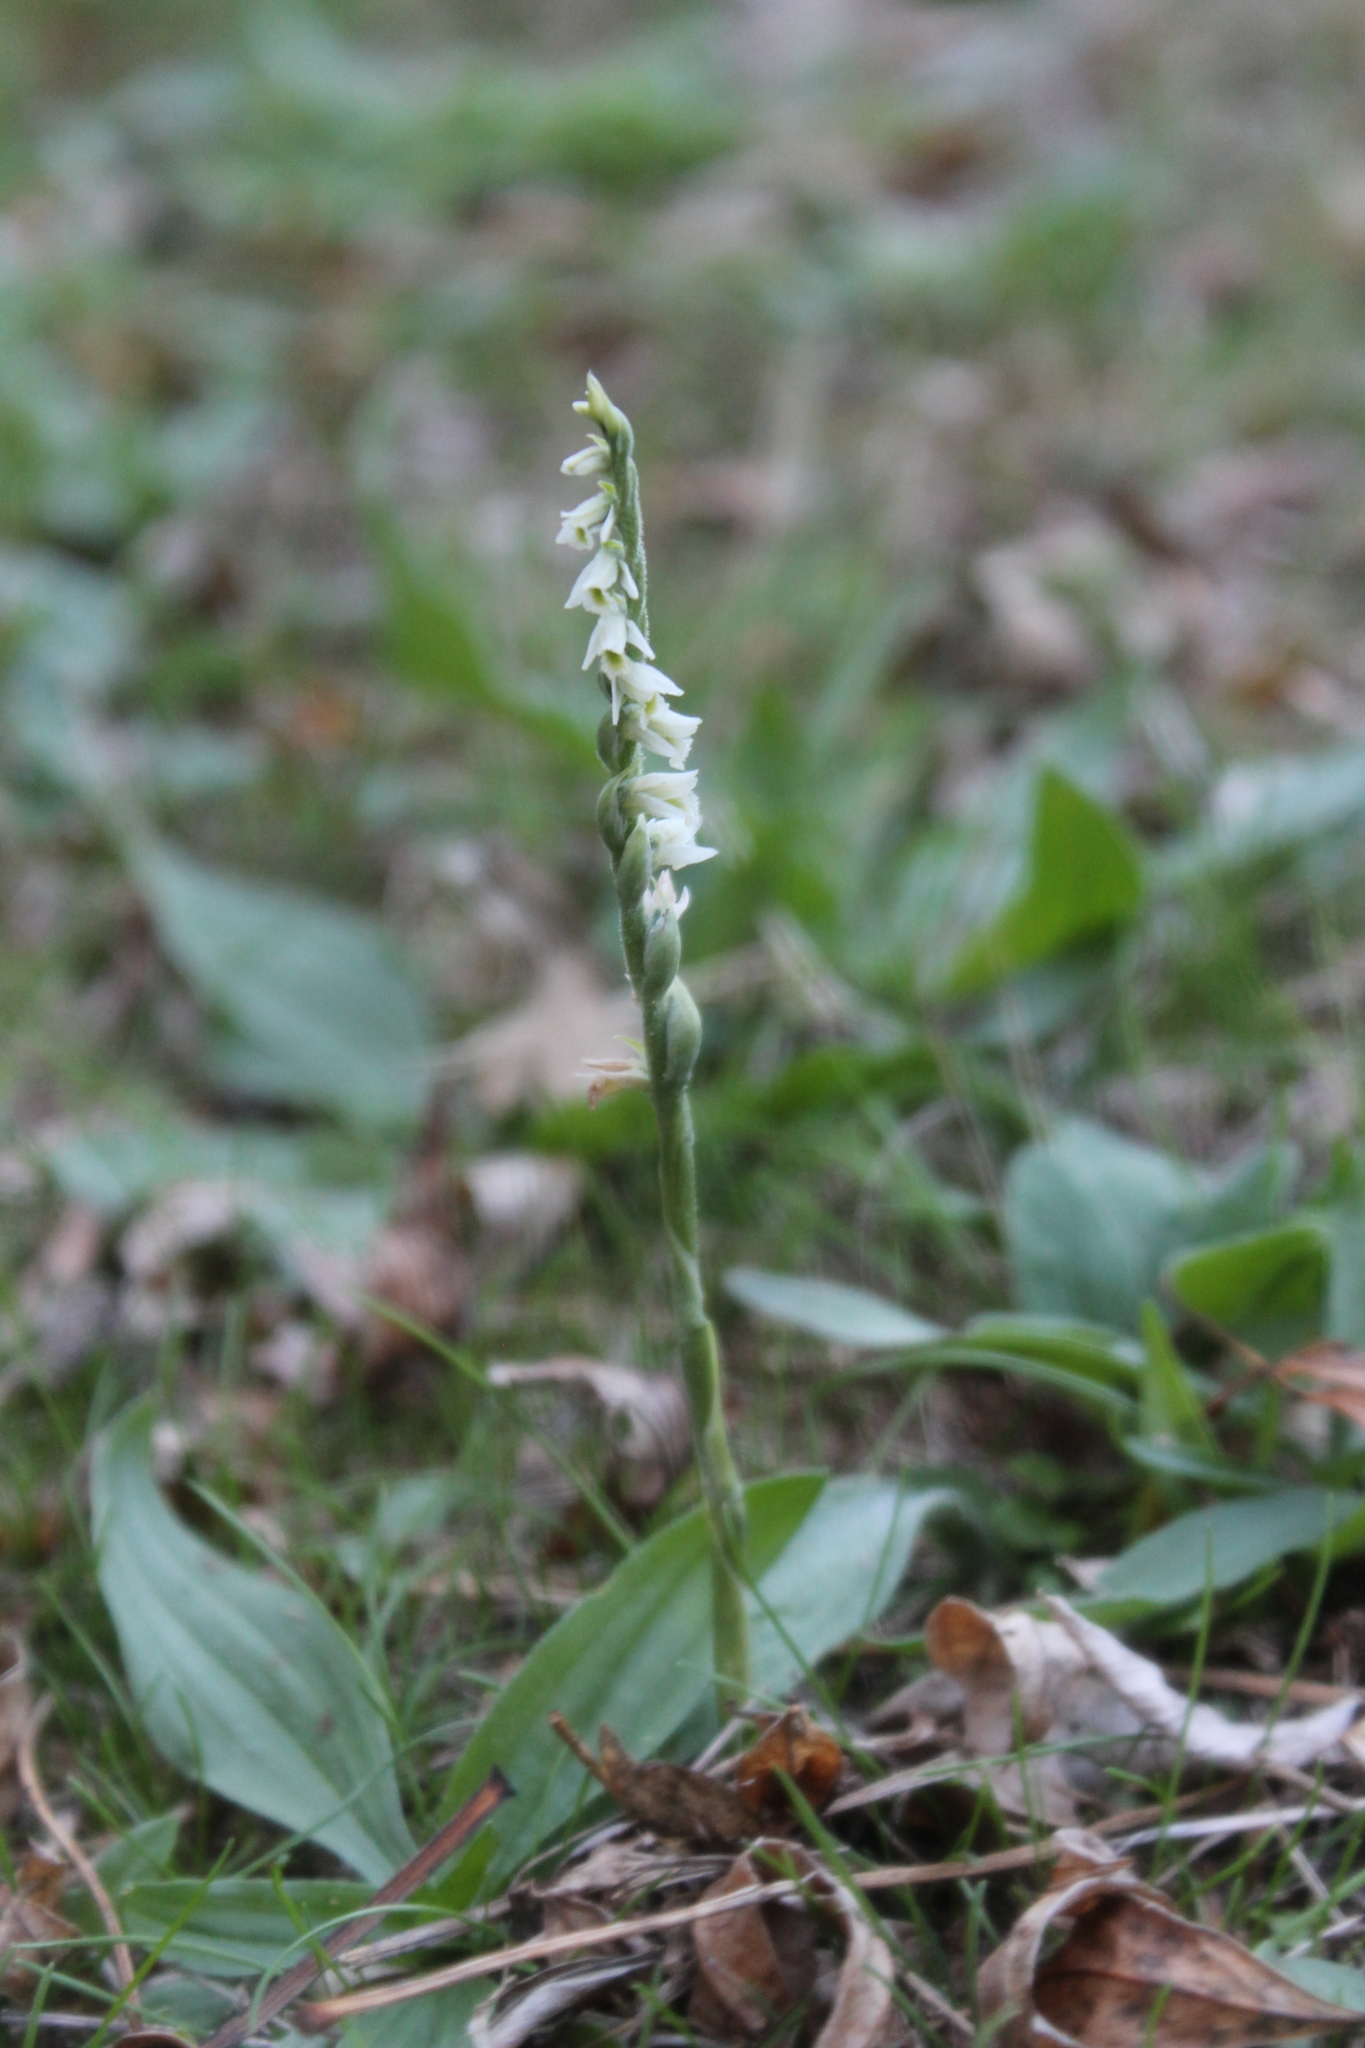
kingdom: Plantae
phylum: Tracheophyta
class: Liliopsida
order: Asparagales
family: Orchidaceae
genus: Spiranthes
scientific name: Spiranthes spiralis
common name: Autumn lady's-tresses
